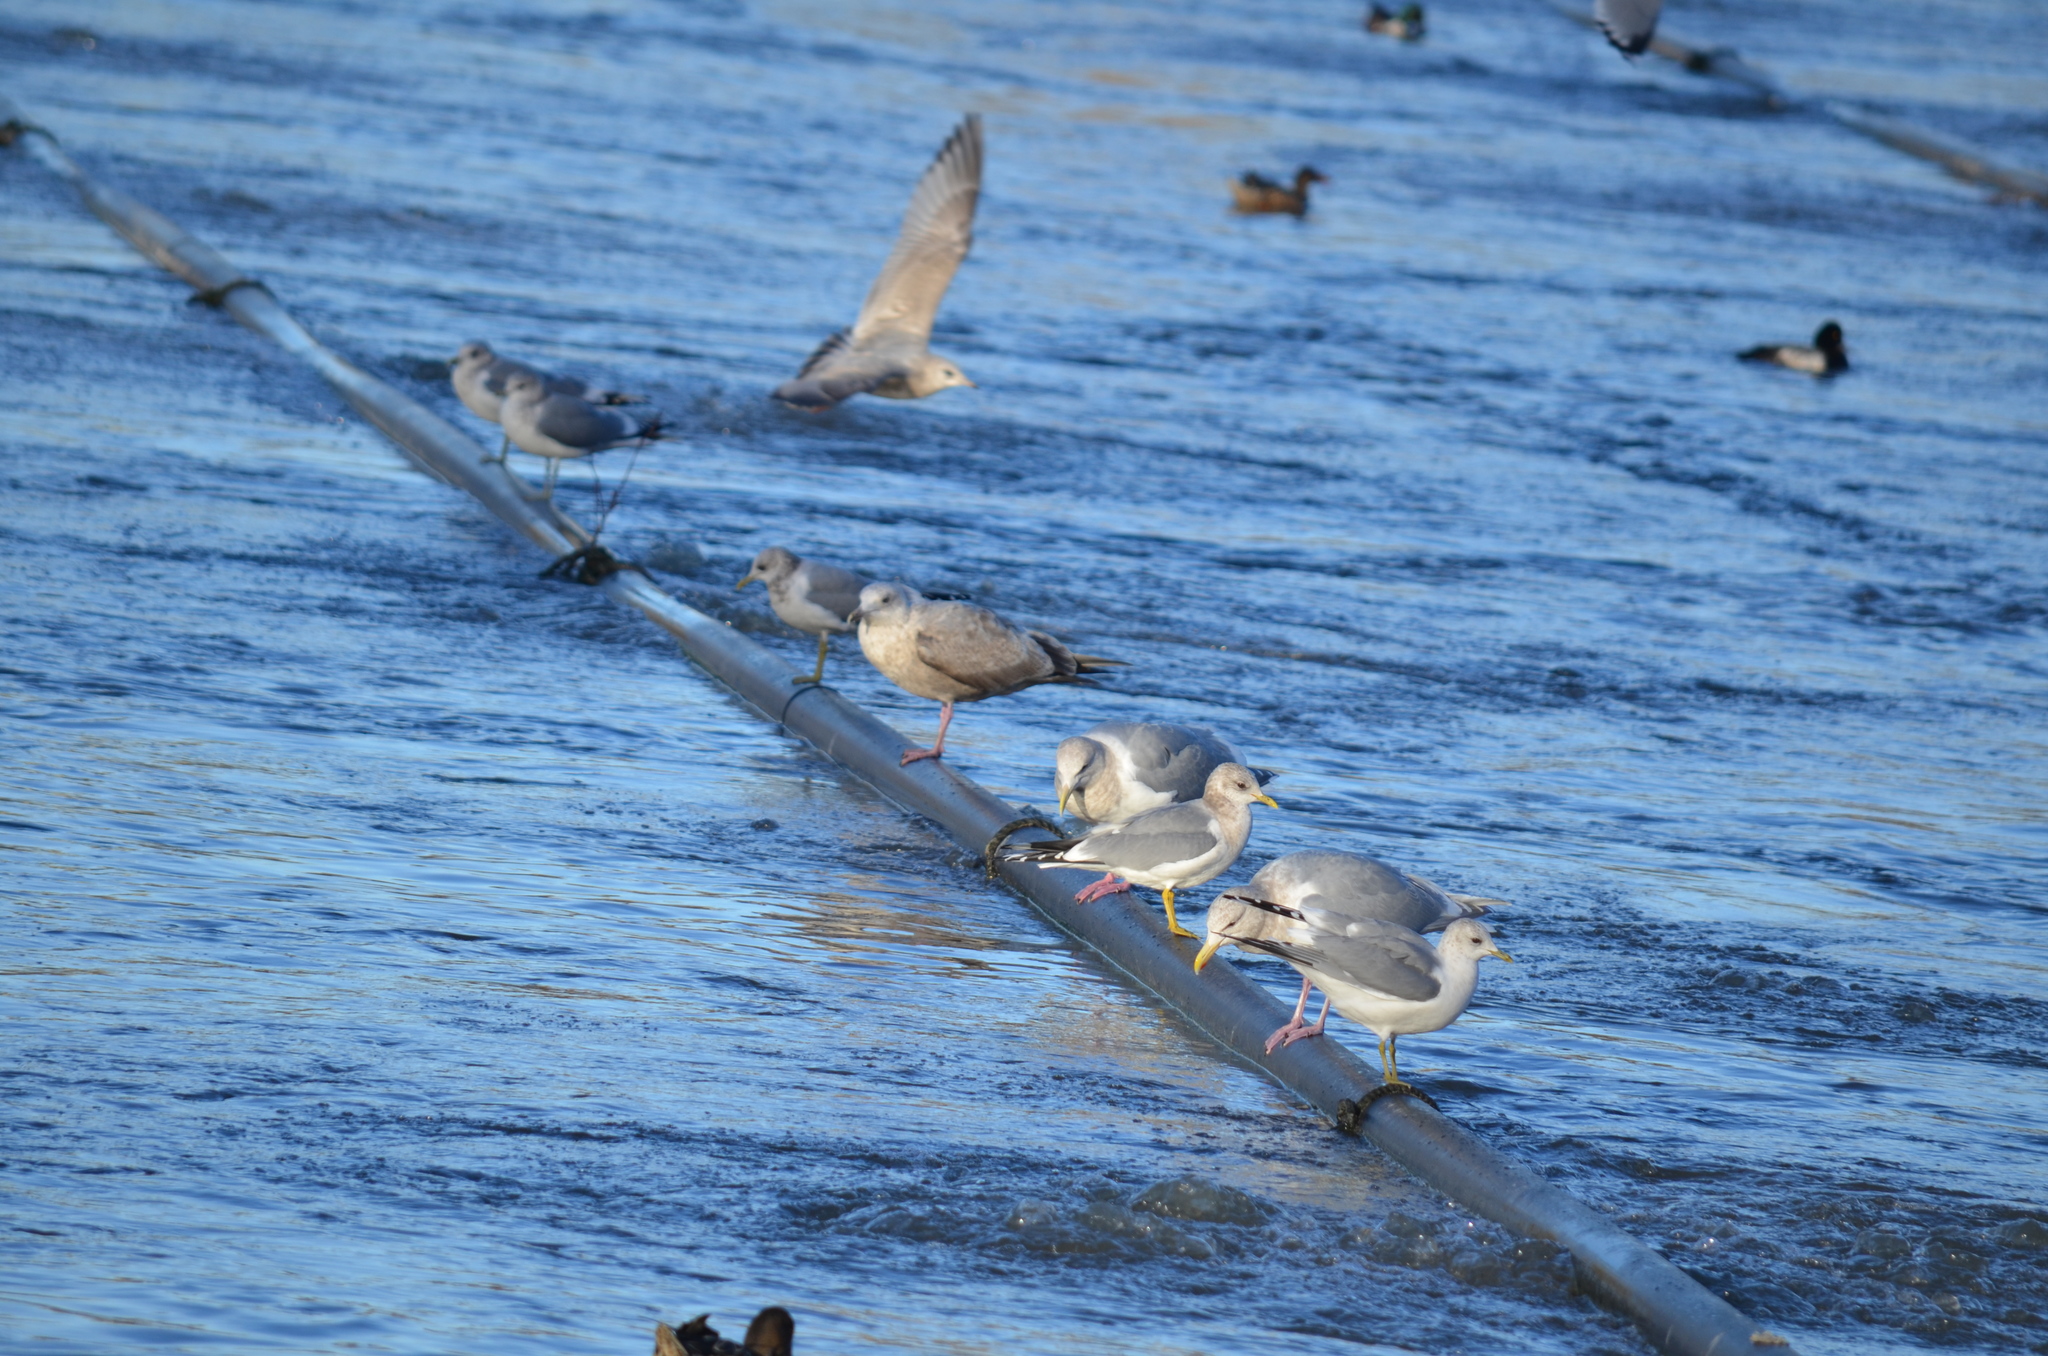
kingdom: Animalia
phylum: Chordata
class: Aves
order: Charadriiformes
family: Laridae
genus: Larus
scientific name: Larus brachyrhynchus
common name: Short-billed gull
